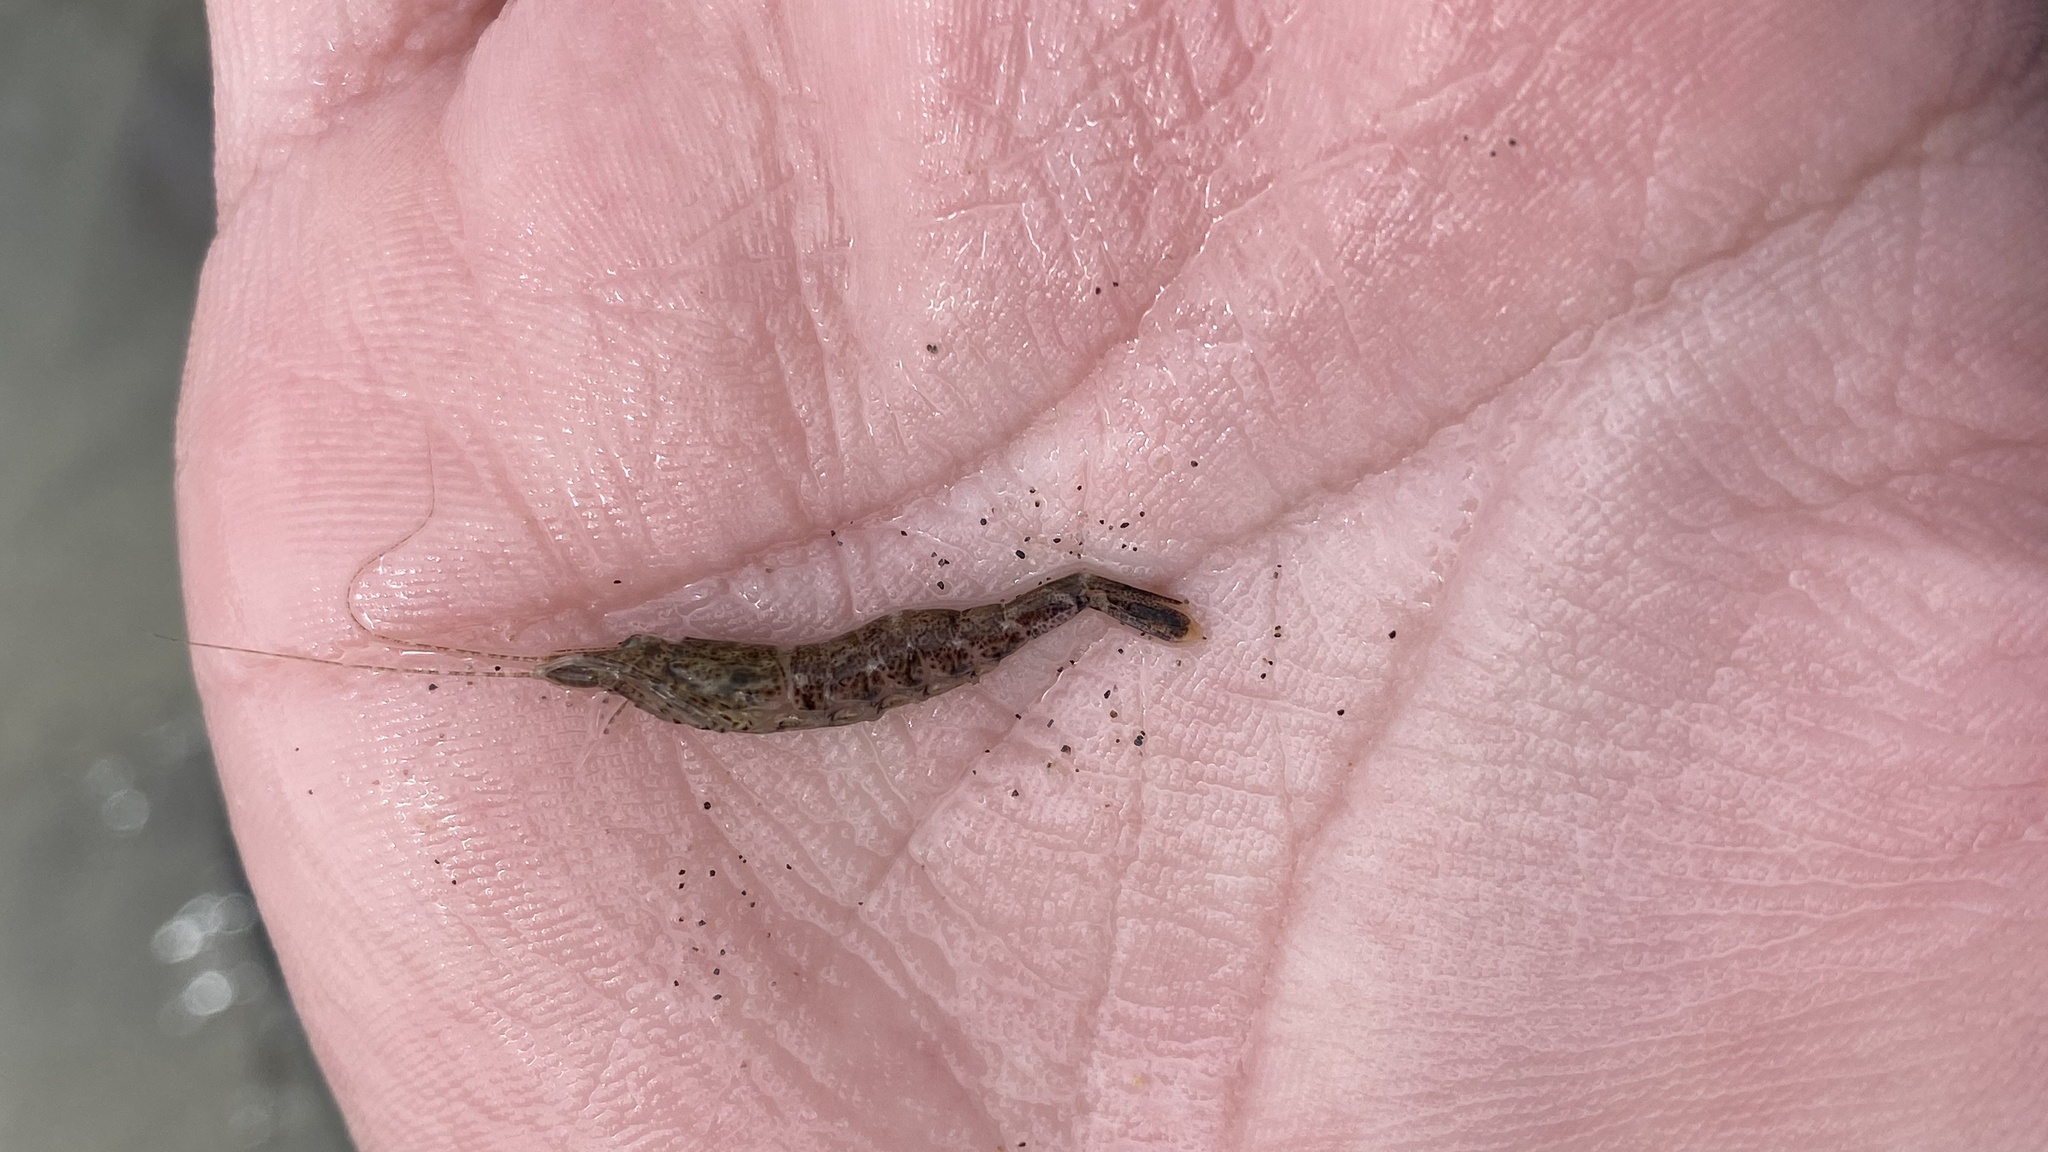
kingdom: Animalia
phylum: Arthropoda
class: Malacostraca
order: Decapoda
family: Crangonidae
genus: Crangon
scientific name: Crangon septemspinosa
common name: Bail shrimp
